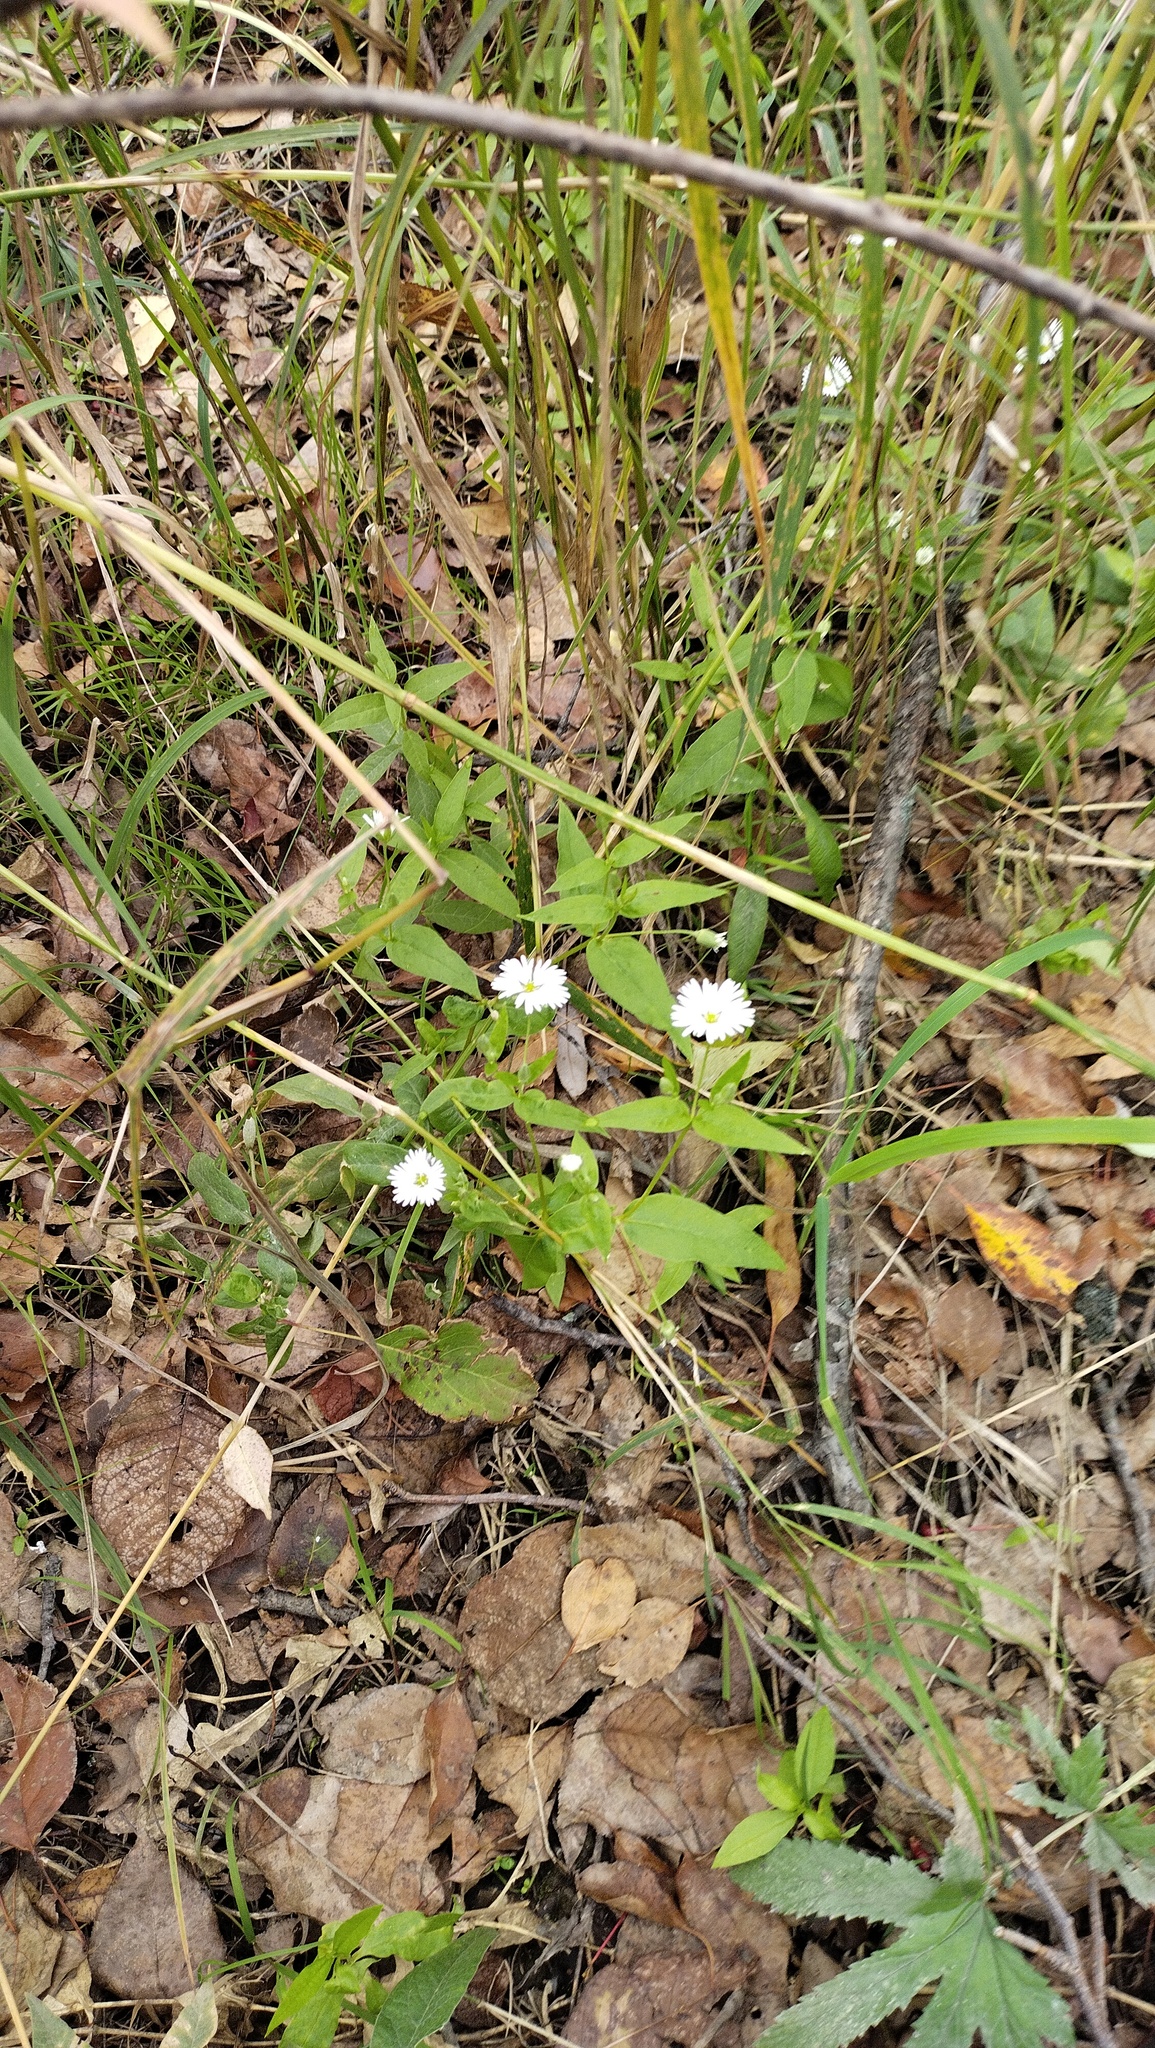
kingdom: Plantae
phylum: Tracheophyta
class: Magnoliopsida
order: Caryophyllales
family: Caryophyllaceae
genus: Stellaria
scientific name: Stellaria radians
